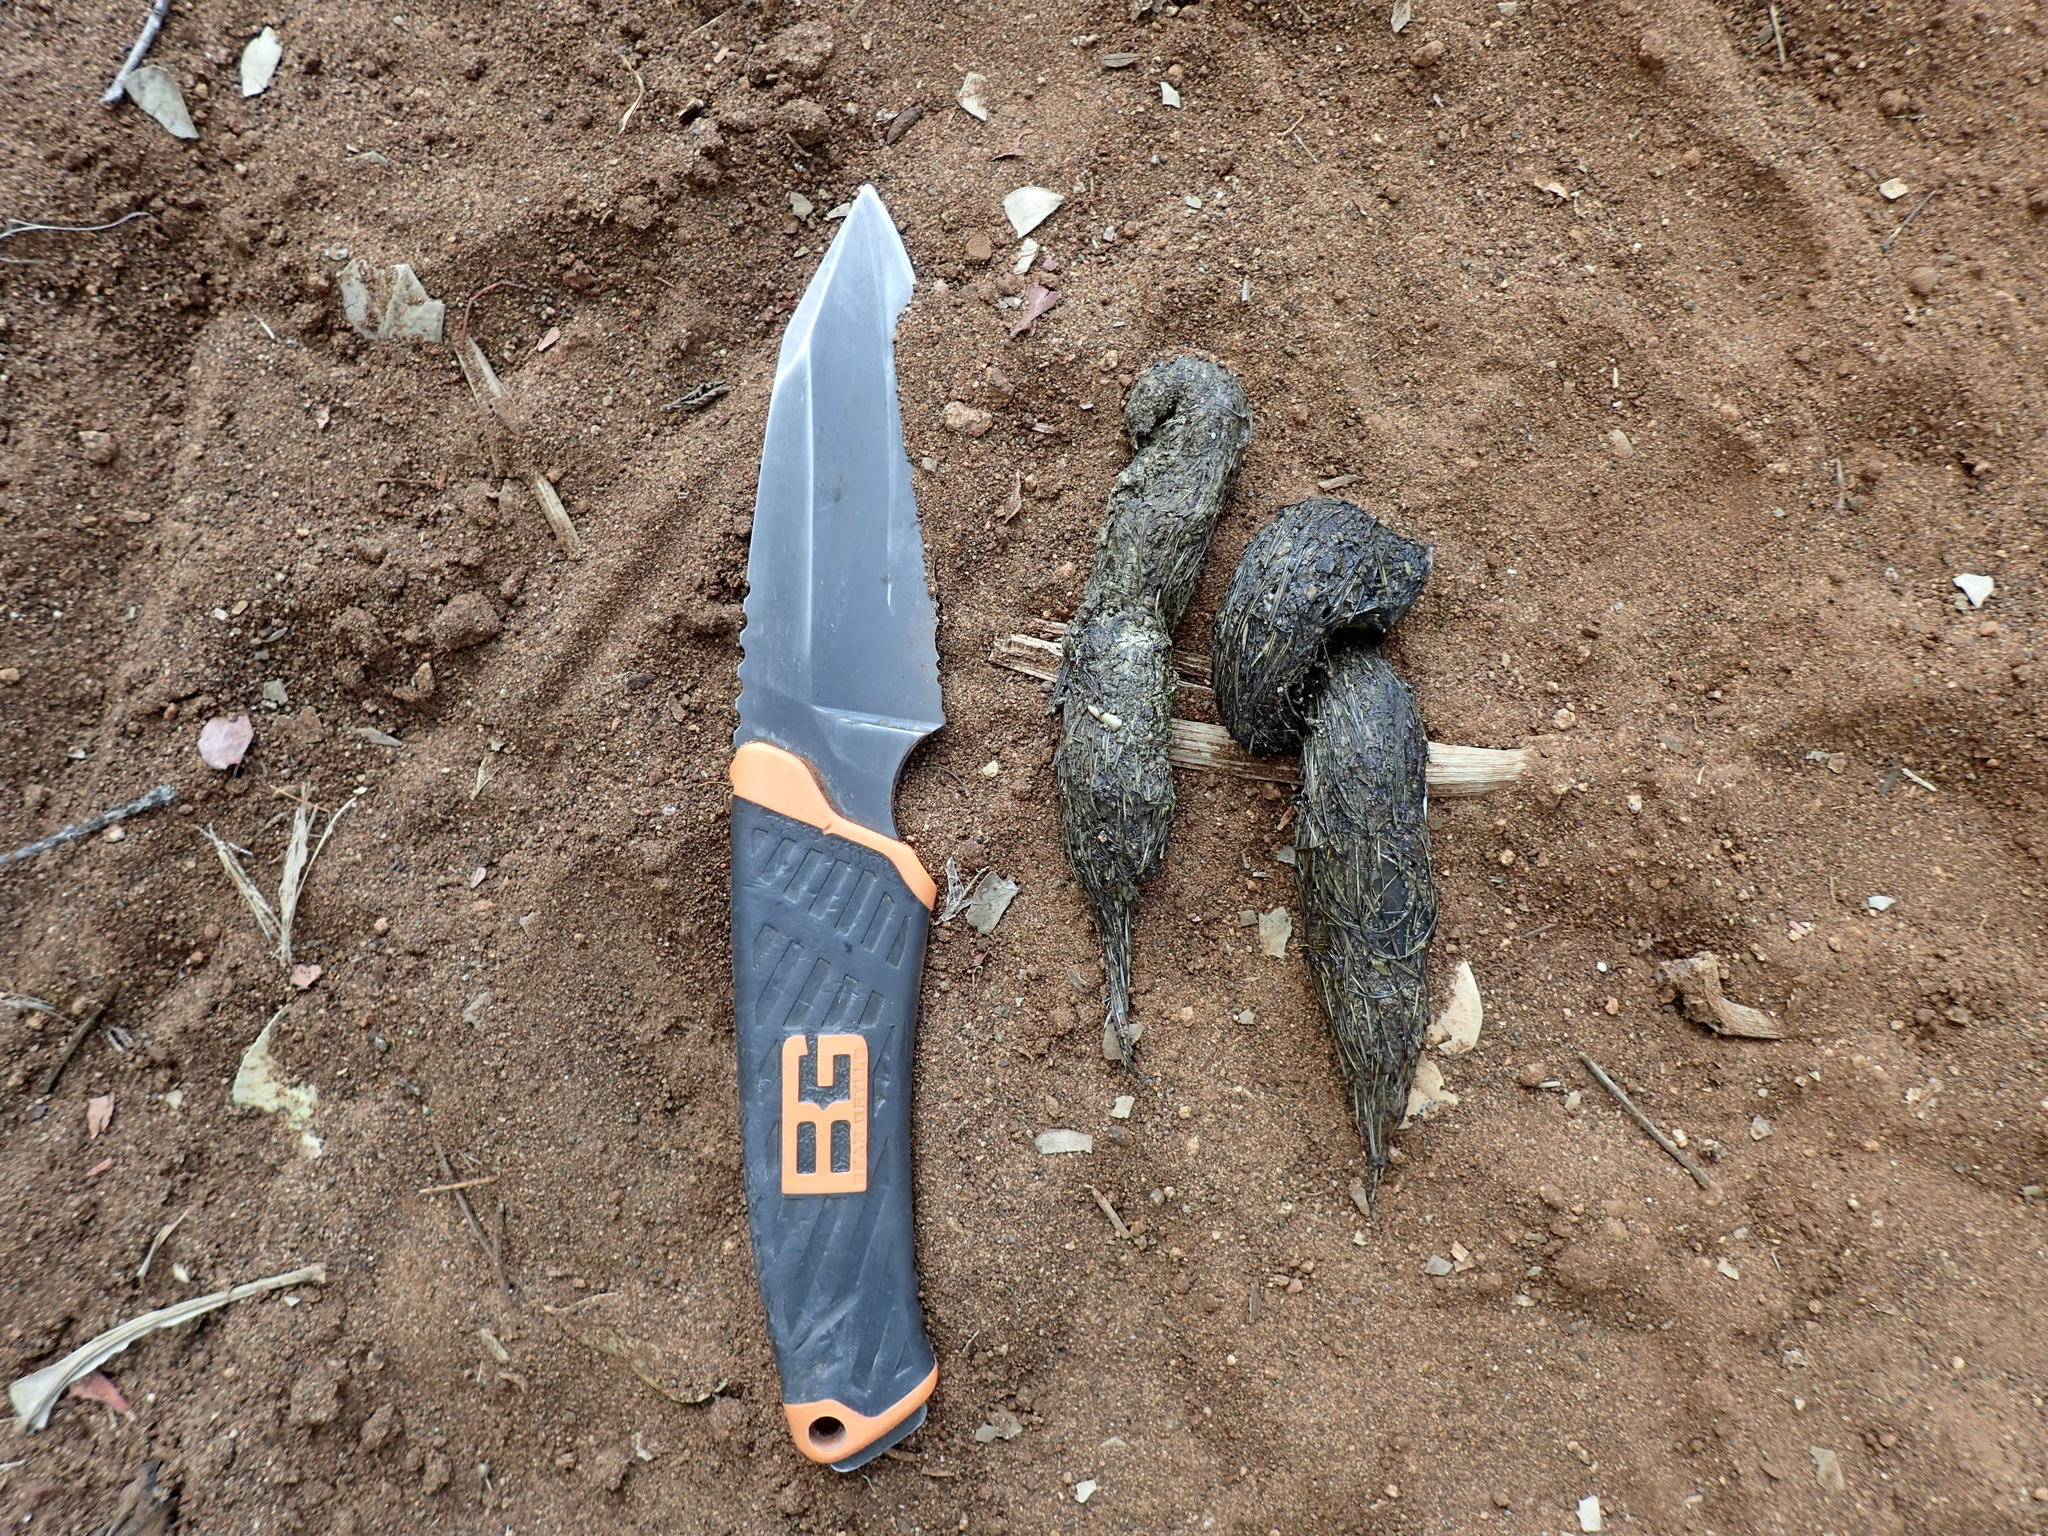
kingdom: Animalia
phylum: Chordata
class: Mammalia
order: Carnivora
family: Canidae
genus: Lupulella
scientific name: Lupulella
